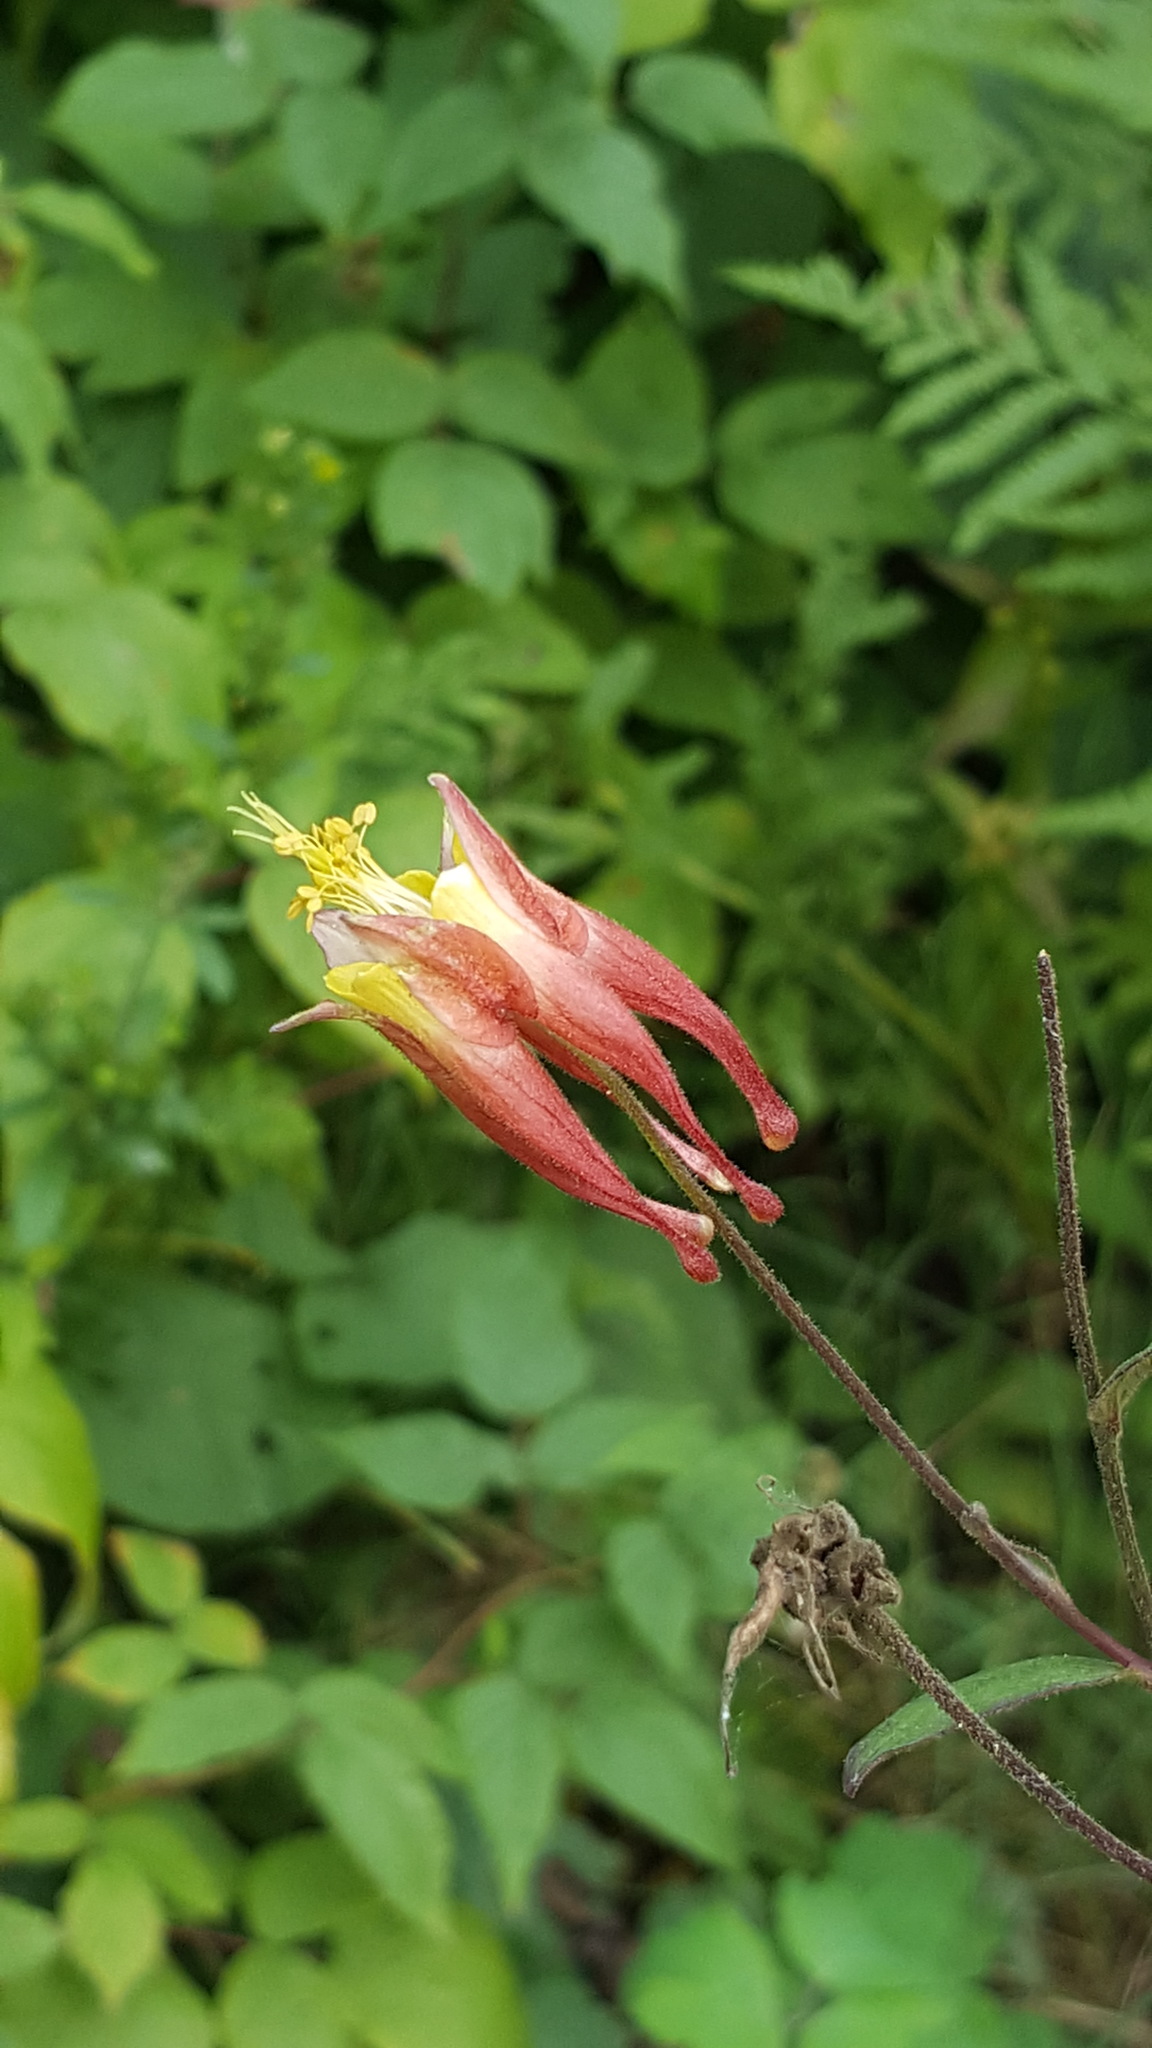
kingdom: Plantae
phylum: Tracheophyta
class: Magnoliopsida
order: Ranunculales
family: Ranunculaceae
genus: Aquilegia
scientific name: Aquilegia canadensis
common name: American columbine
